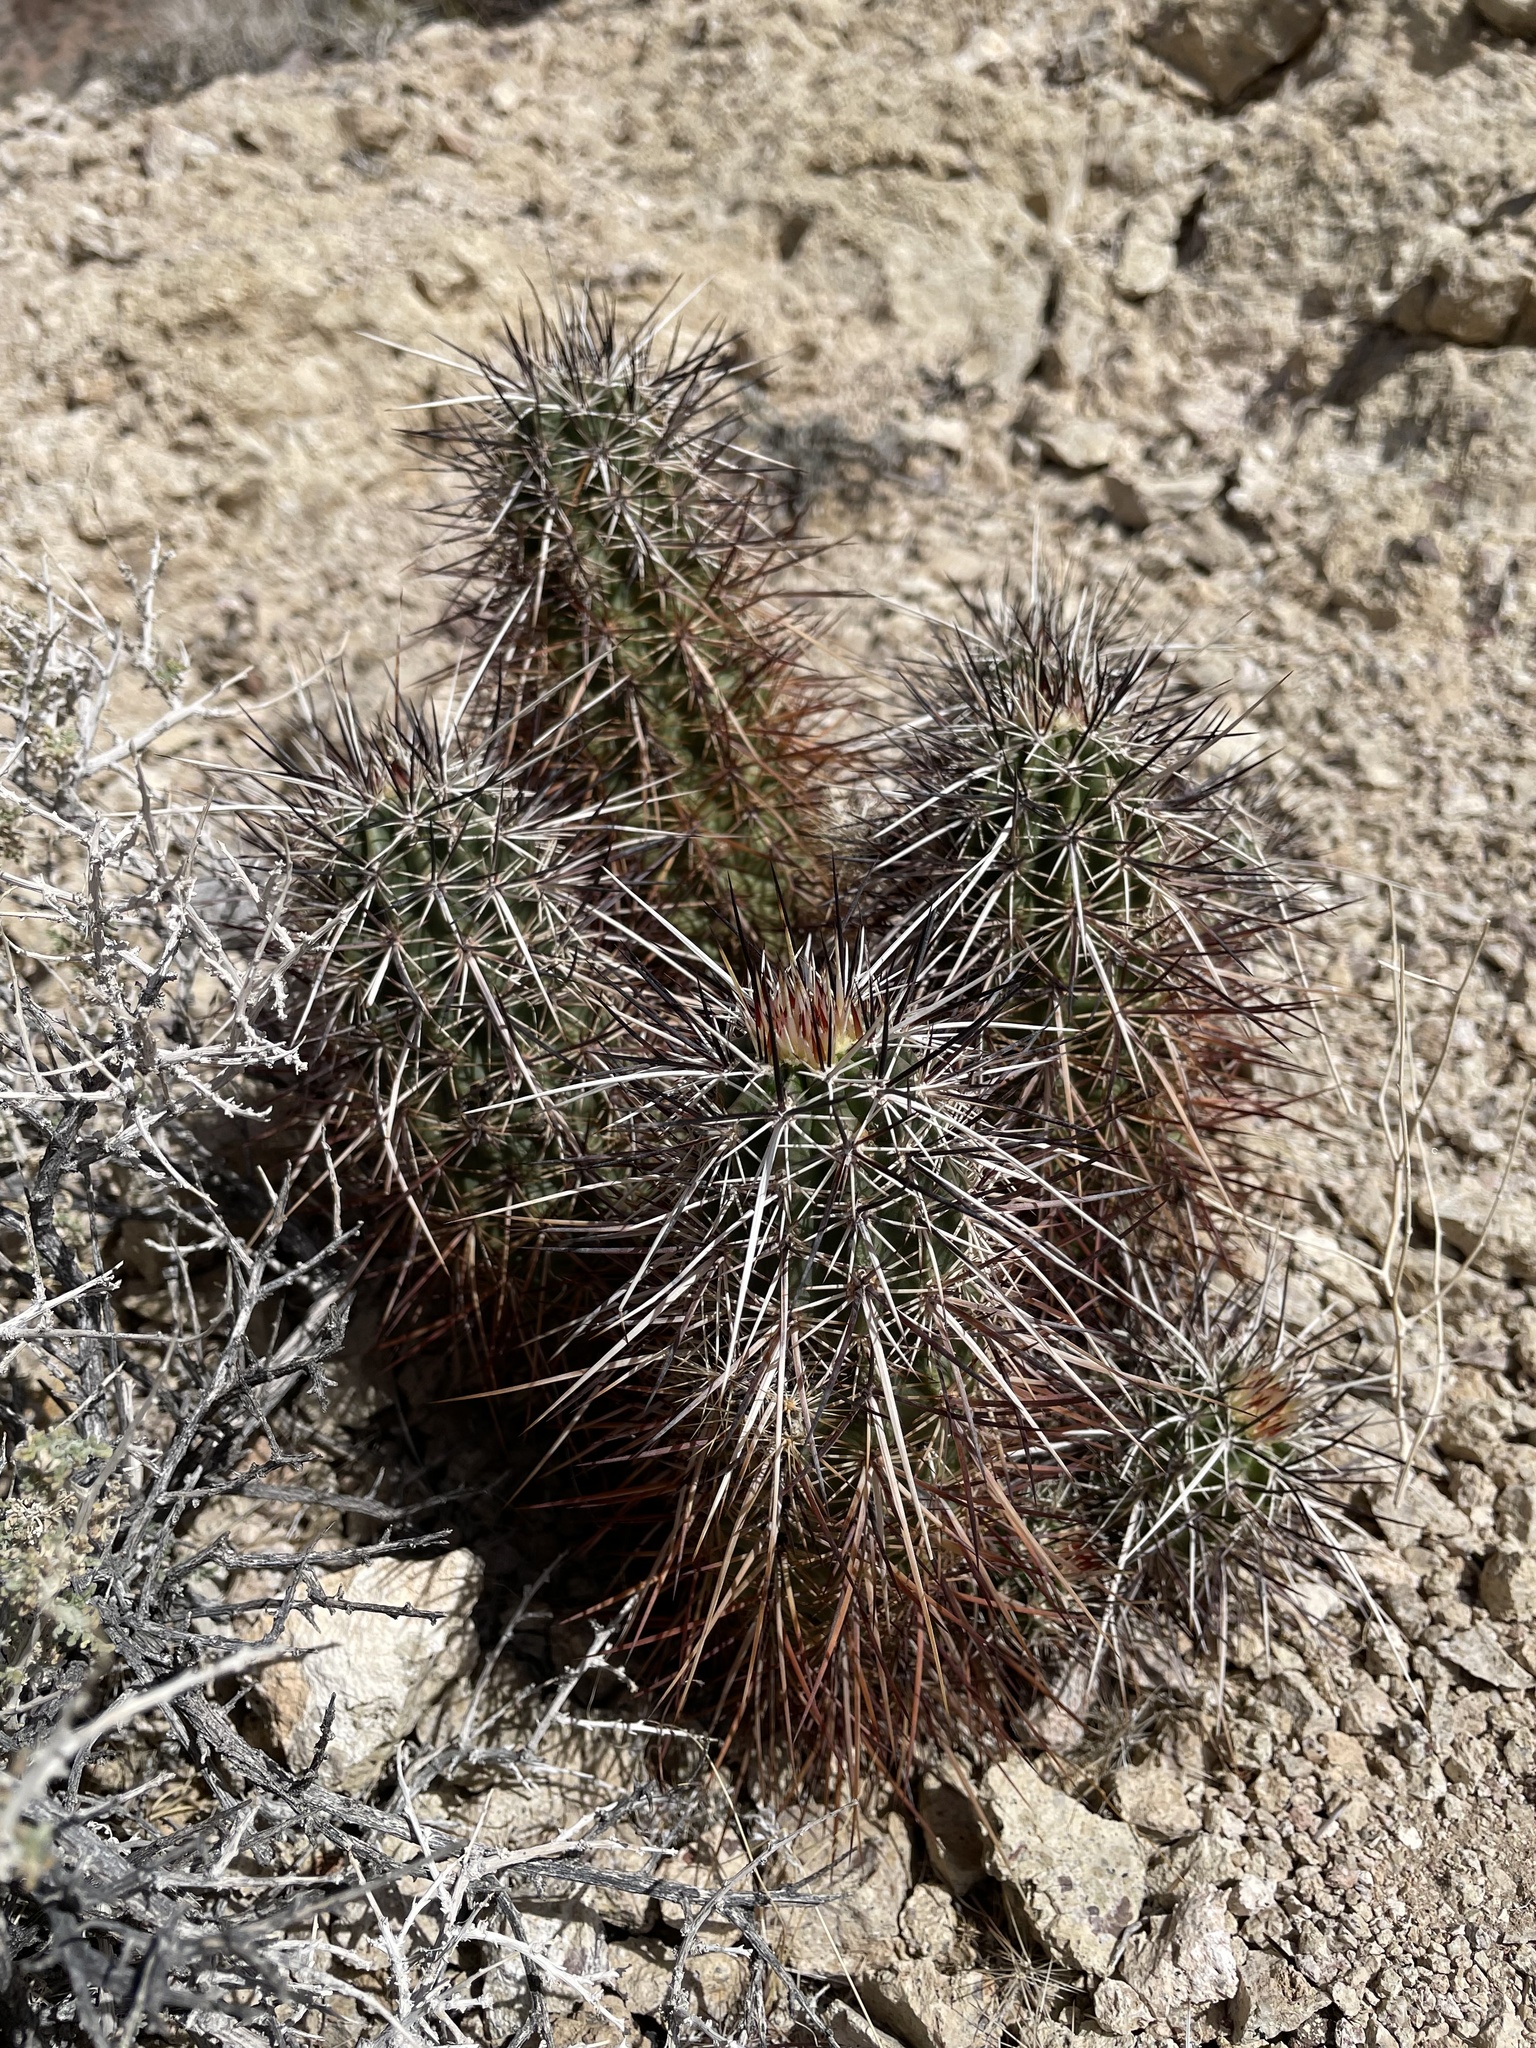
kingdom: Plantae
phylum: Tracheophyta
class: Magnoliopsida
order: Caryophyllales
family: Cactaceae
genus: Echinocereus
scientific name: Echinocereus engelmannii
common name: Engelmann's hedgehog cactus
